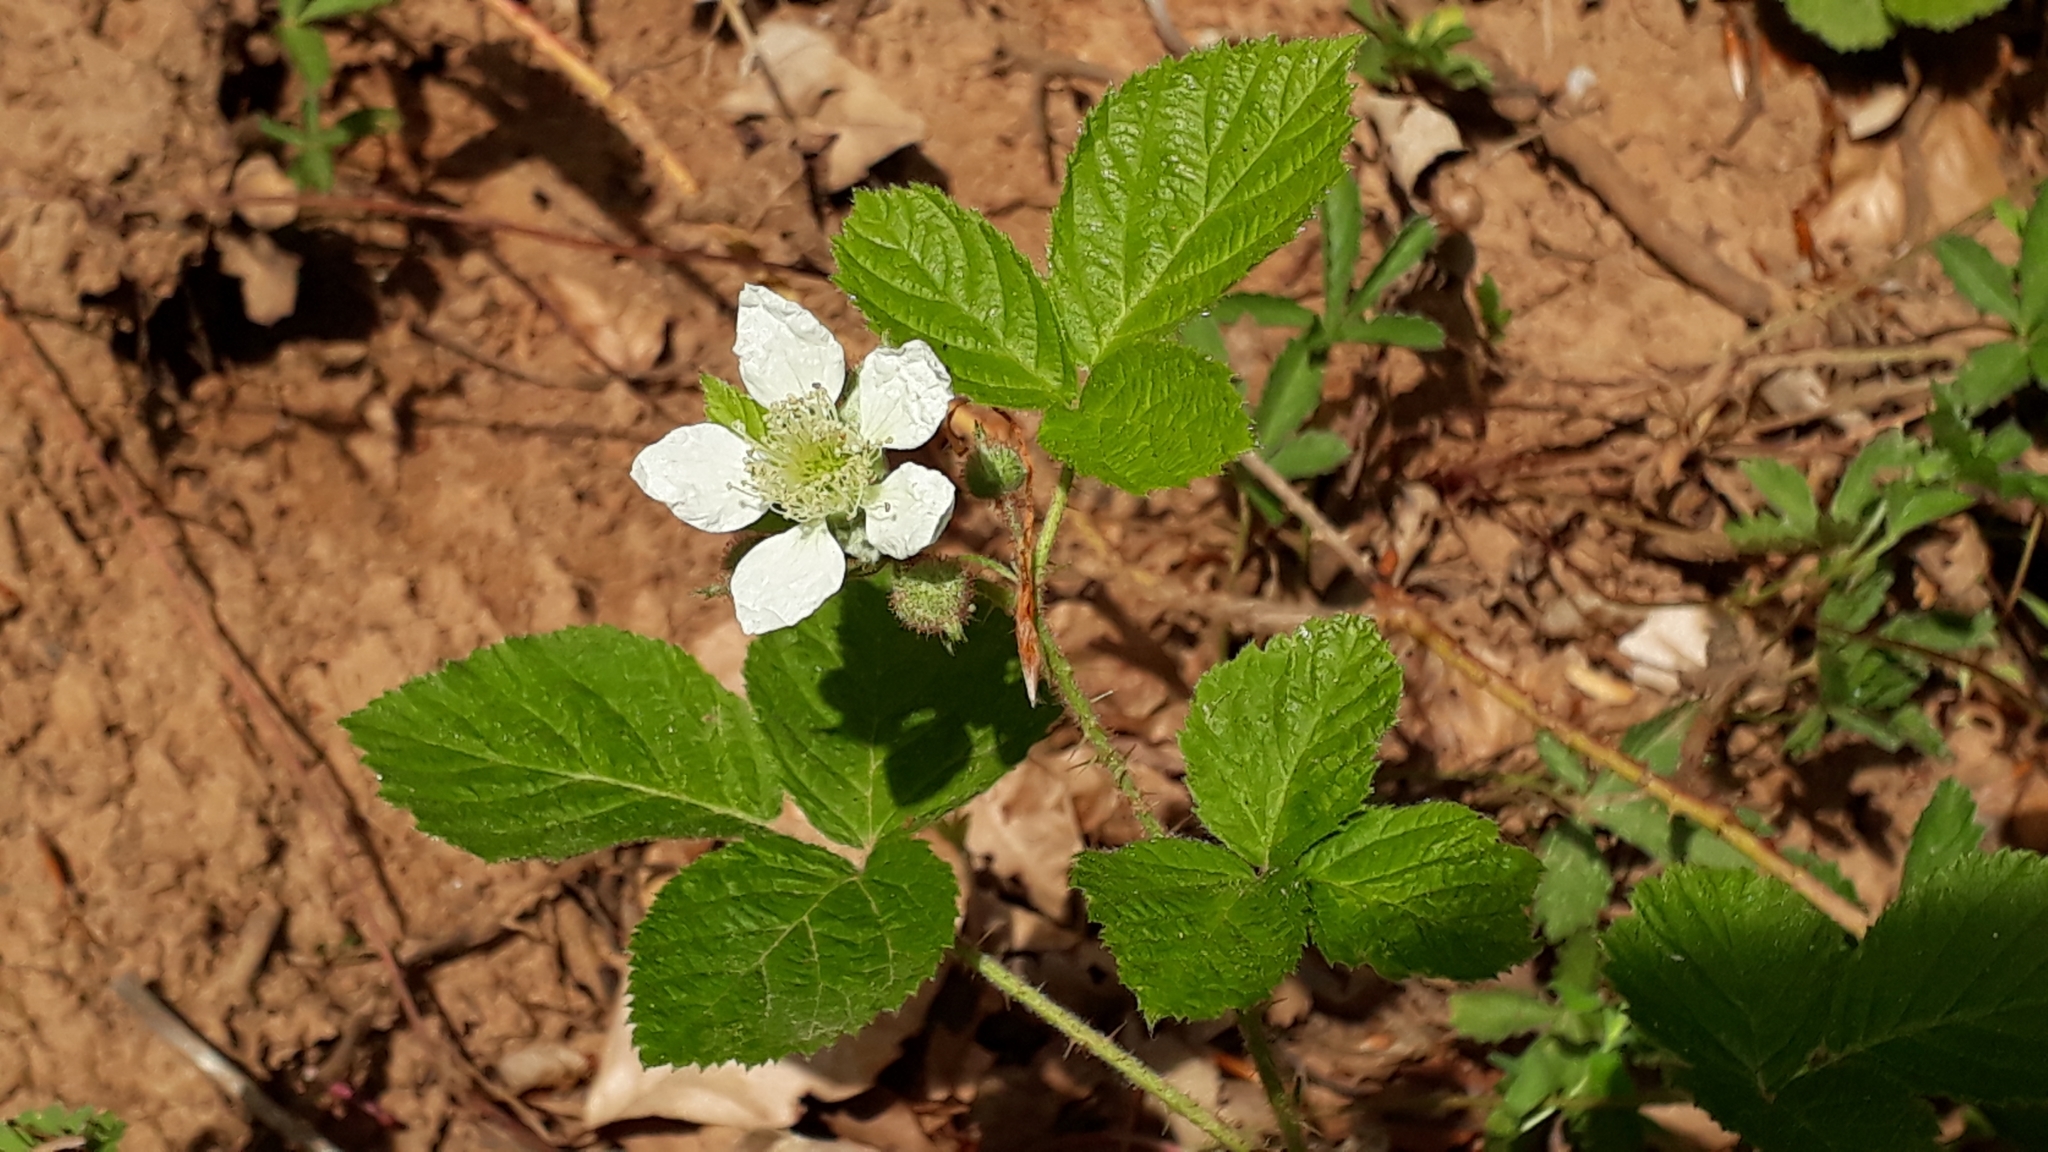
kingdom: Plantae
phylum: Tracheophyta
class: Magnoliopsida
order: Rosales
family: Rosaceae
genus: Rubus
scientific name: Rubus caesius
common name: Dewberry
